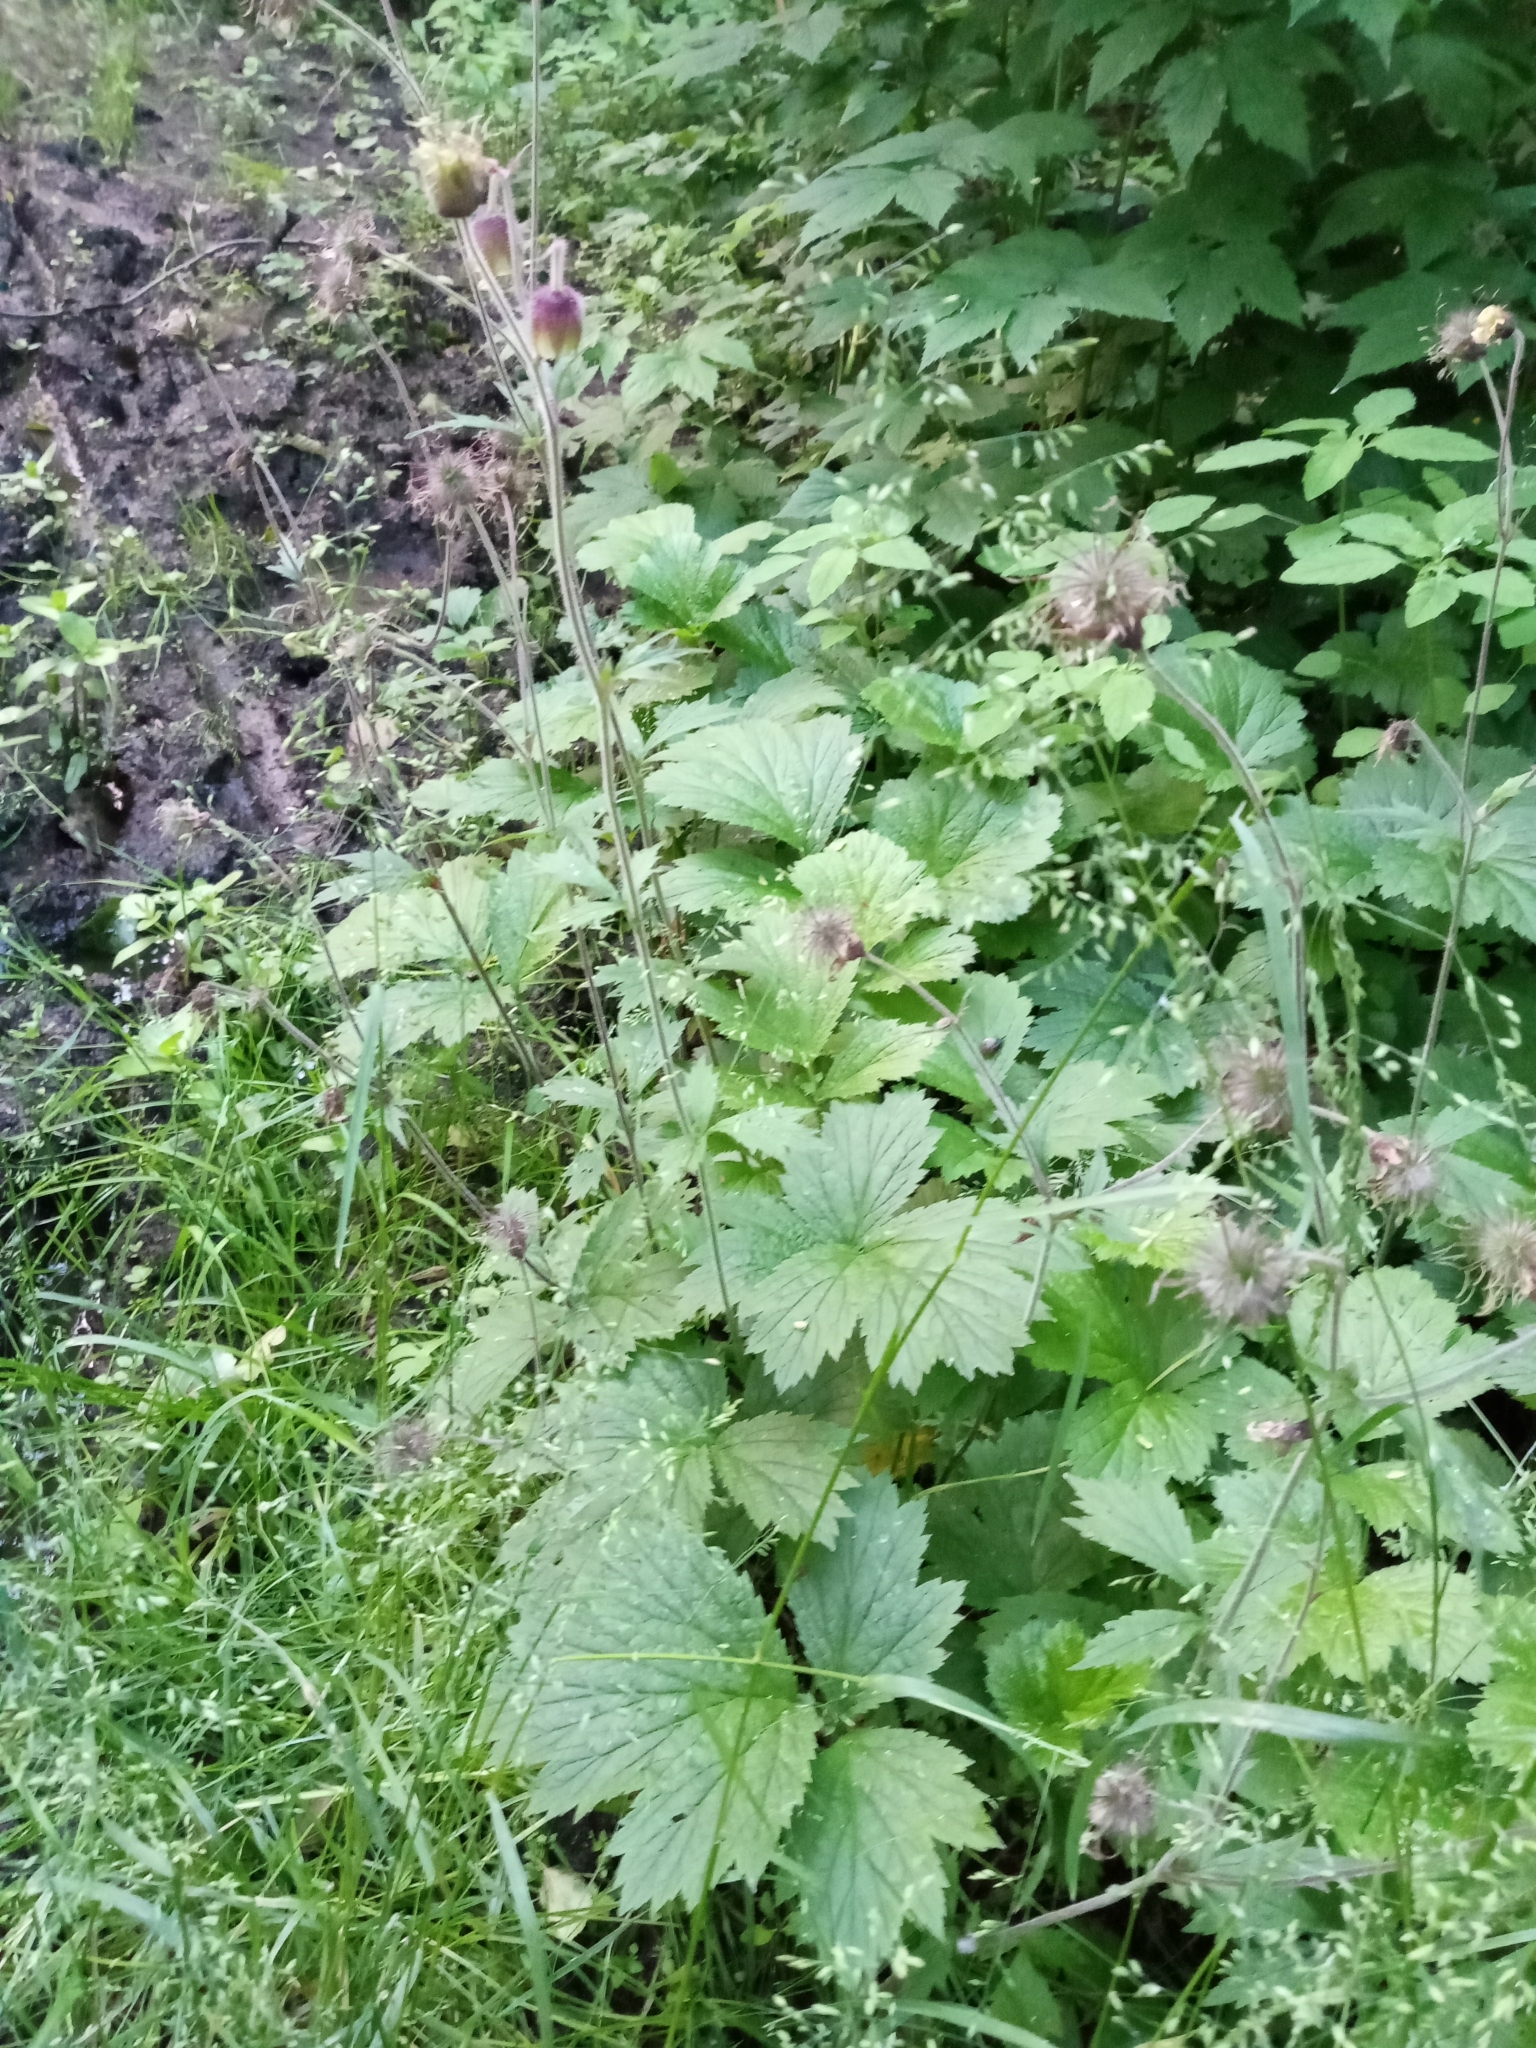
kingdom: Plantae
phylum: Tracheophyta
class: Magnoliopsida
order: Rosales
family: Rosaceae
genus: Geum
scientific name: Geum rivale
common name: Water avens
